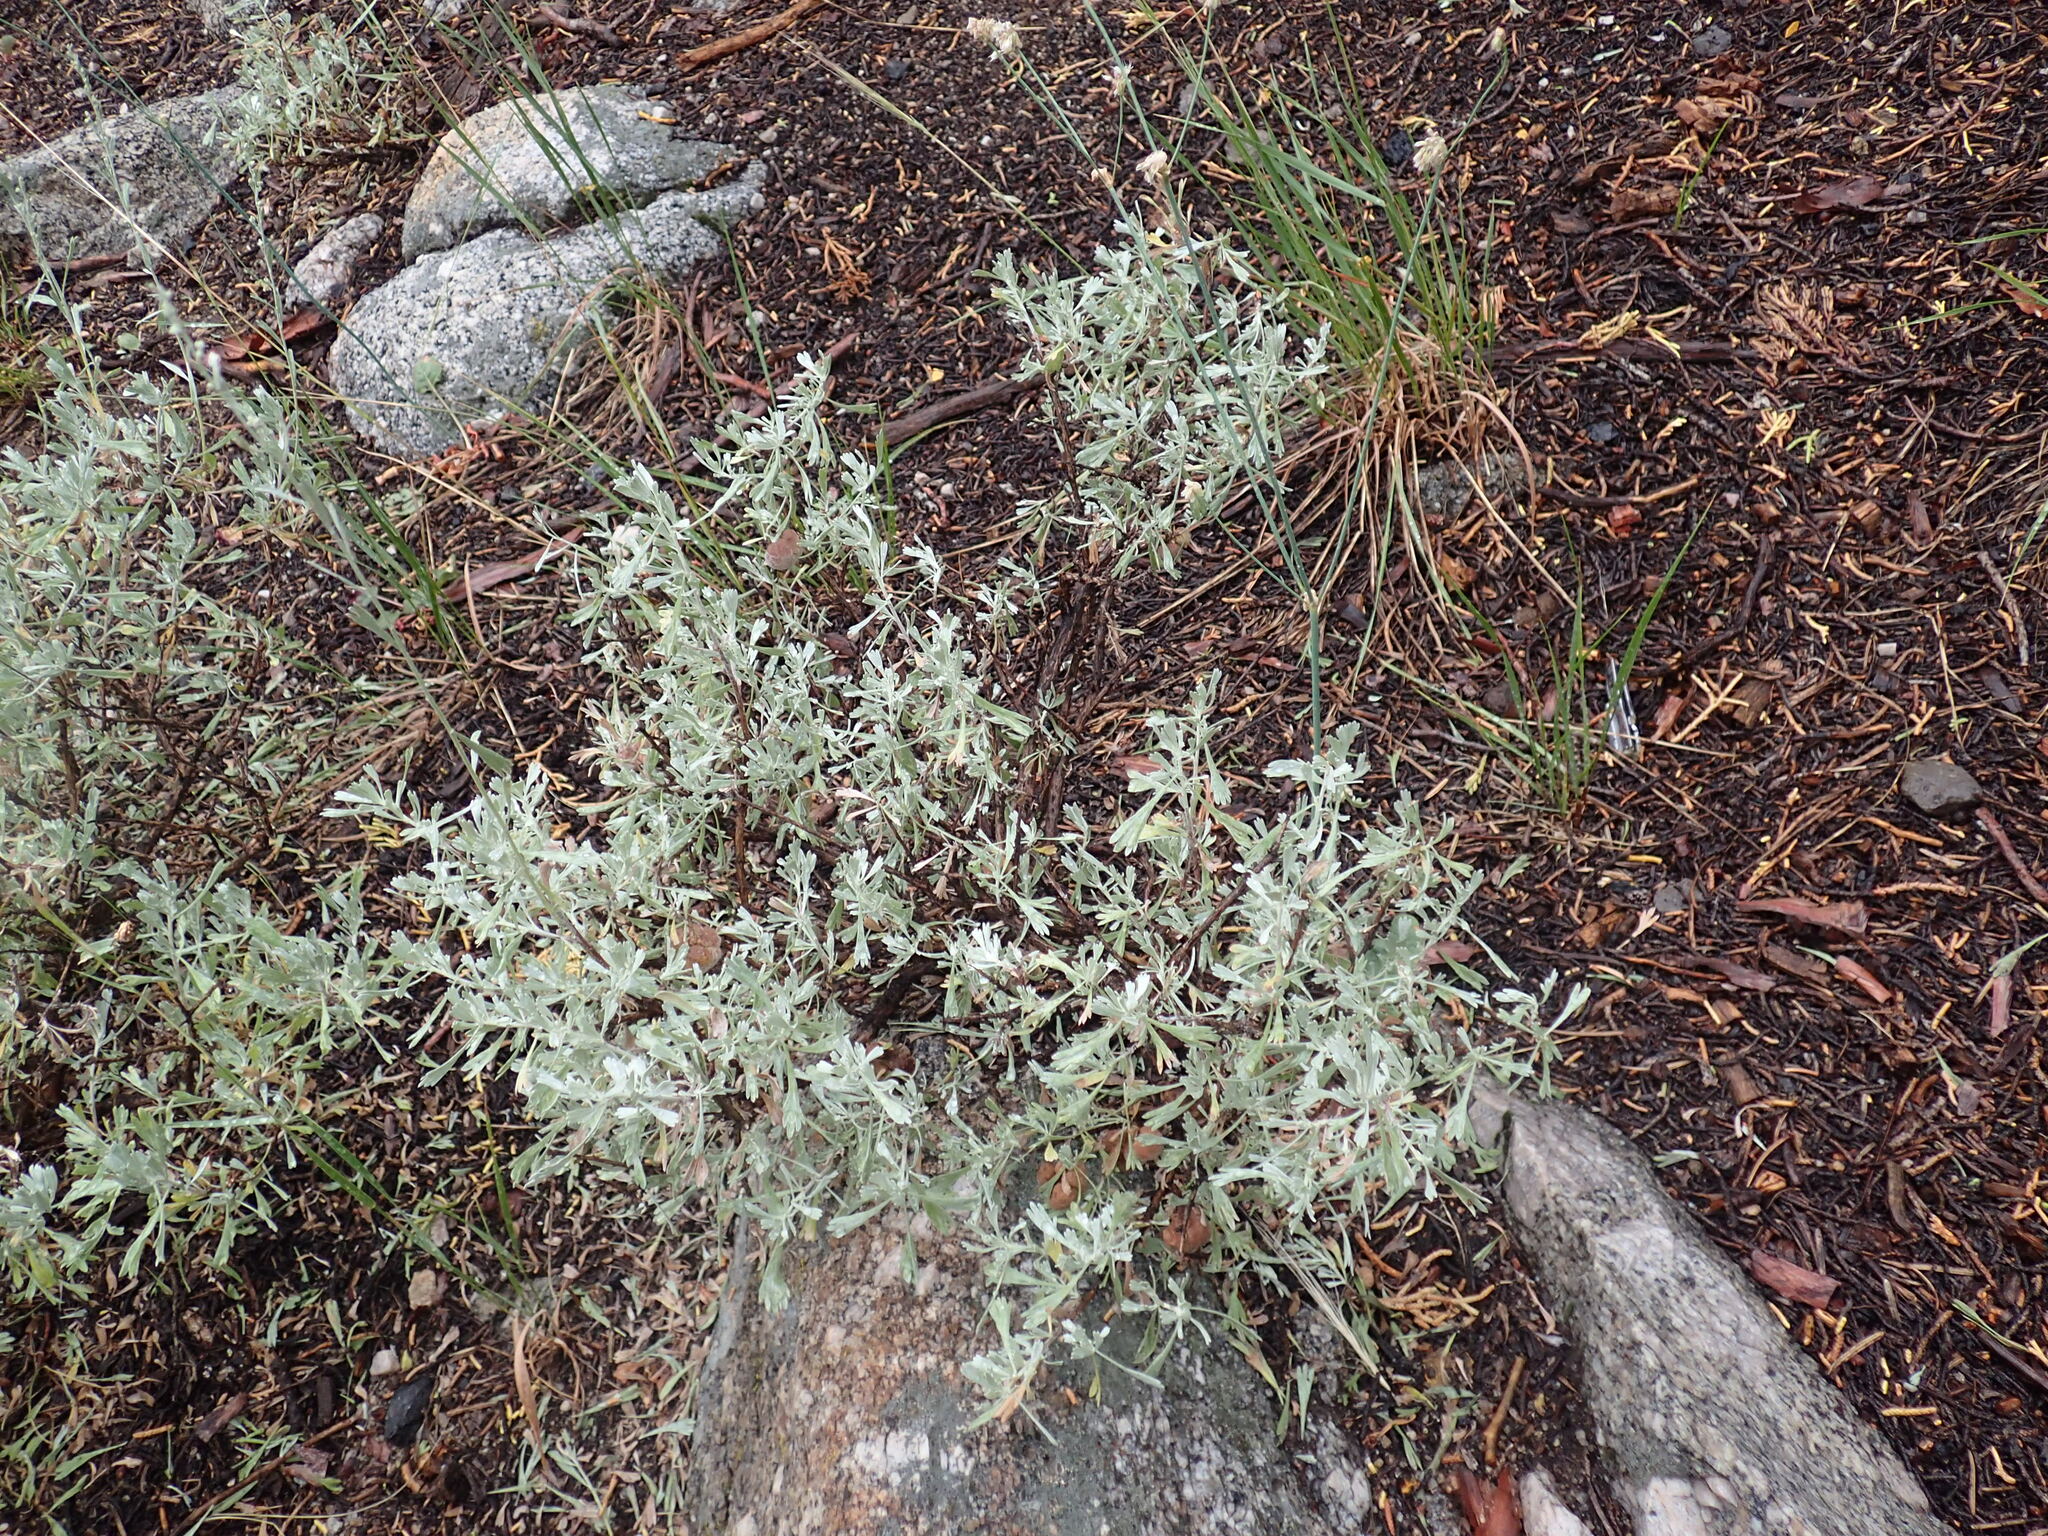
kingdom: Animalia
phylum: Arthropoda
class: Insecta
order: Diptera
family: Cecidomyiidae
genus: Rhopalomyia
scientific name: Rhopalomyia pomum
